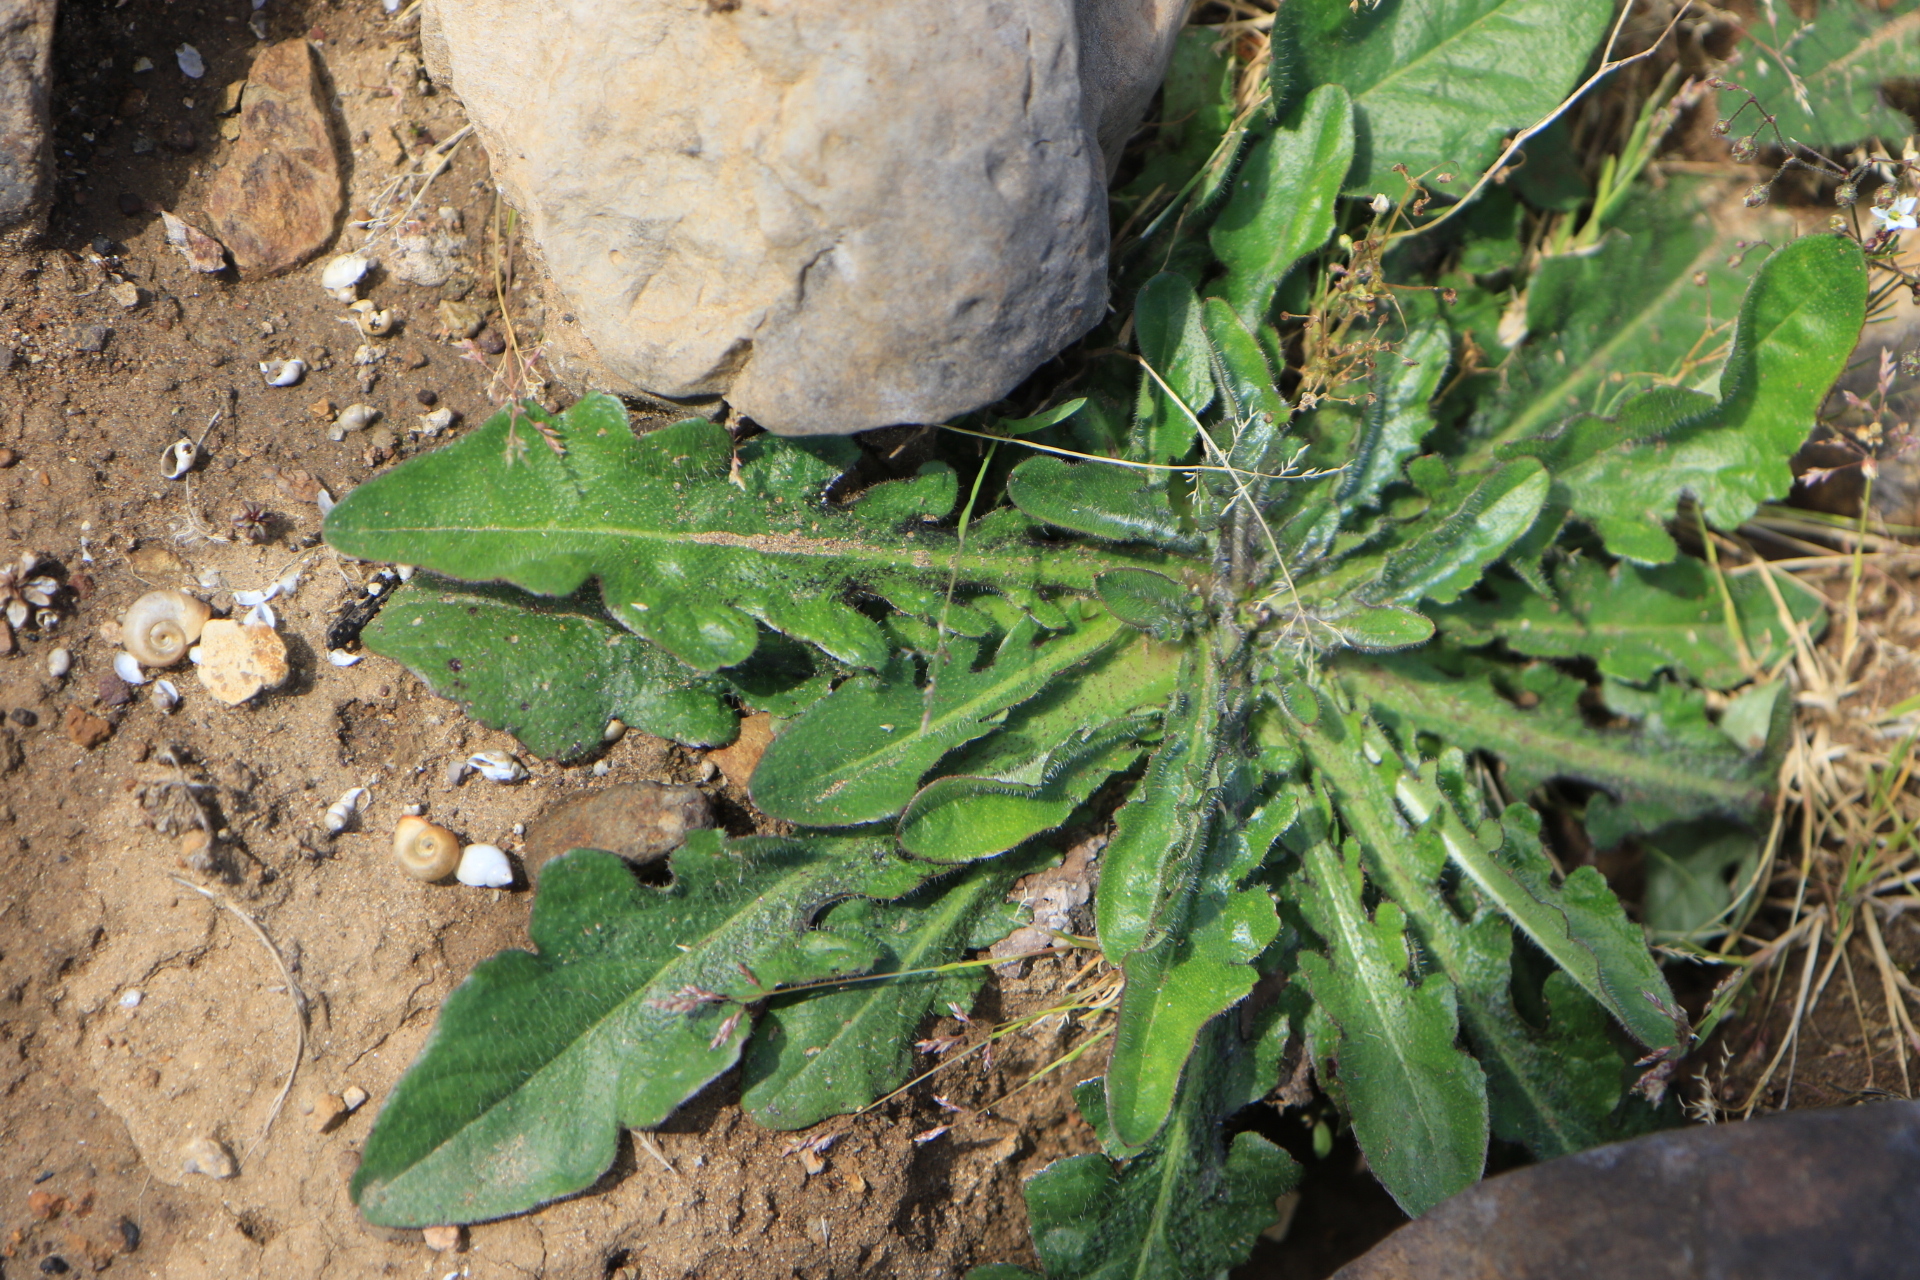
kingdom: Plantae
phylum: Tracheophyta
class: Magnoliopsida
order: Asterales
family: Asteraceae
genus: Hypochaeris
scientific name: Hypochaeris radicata
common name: Flatweed
